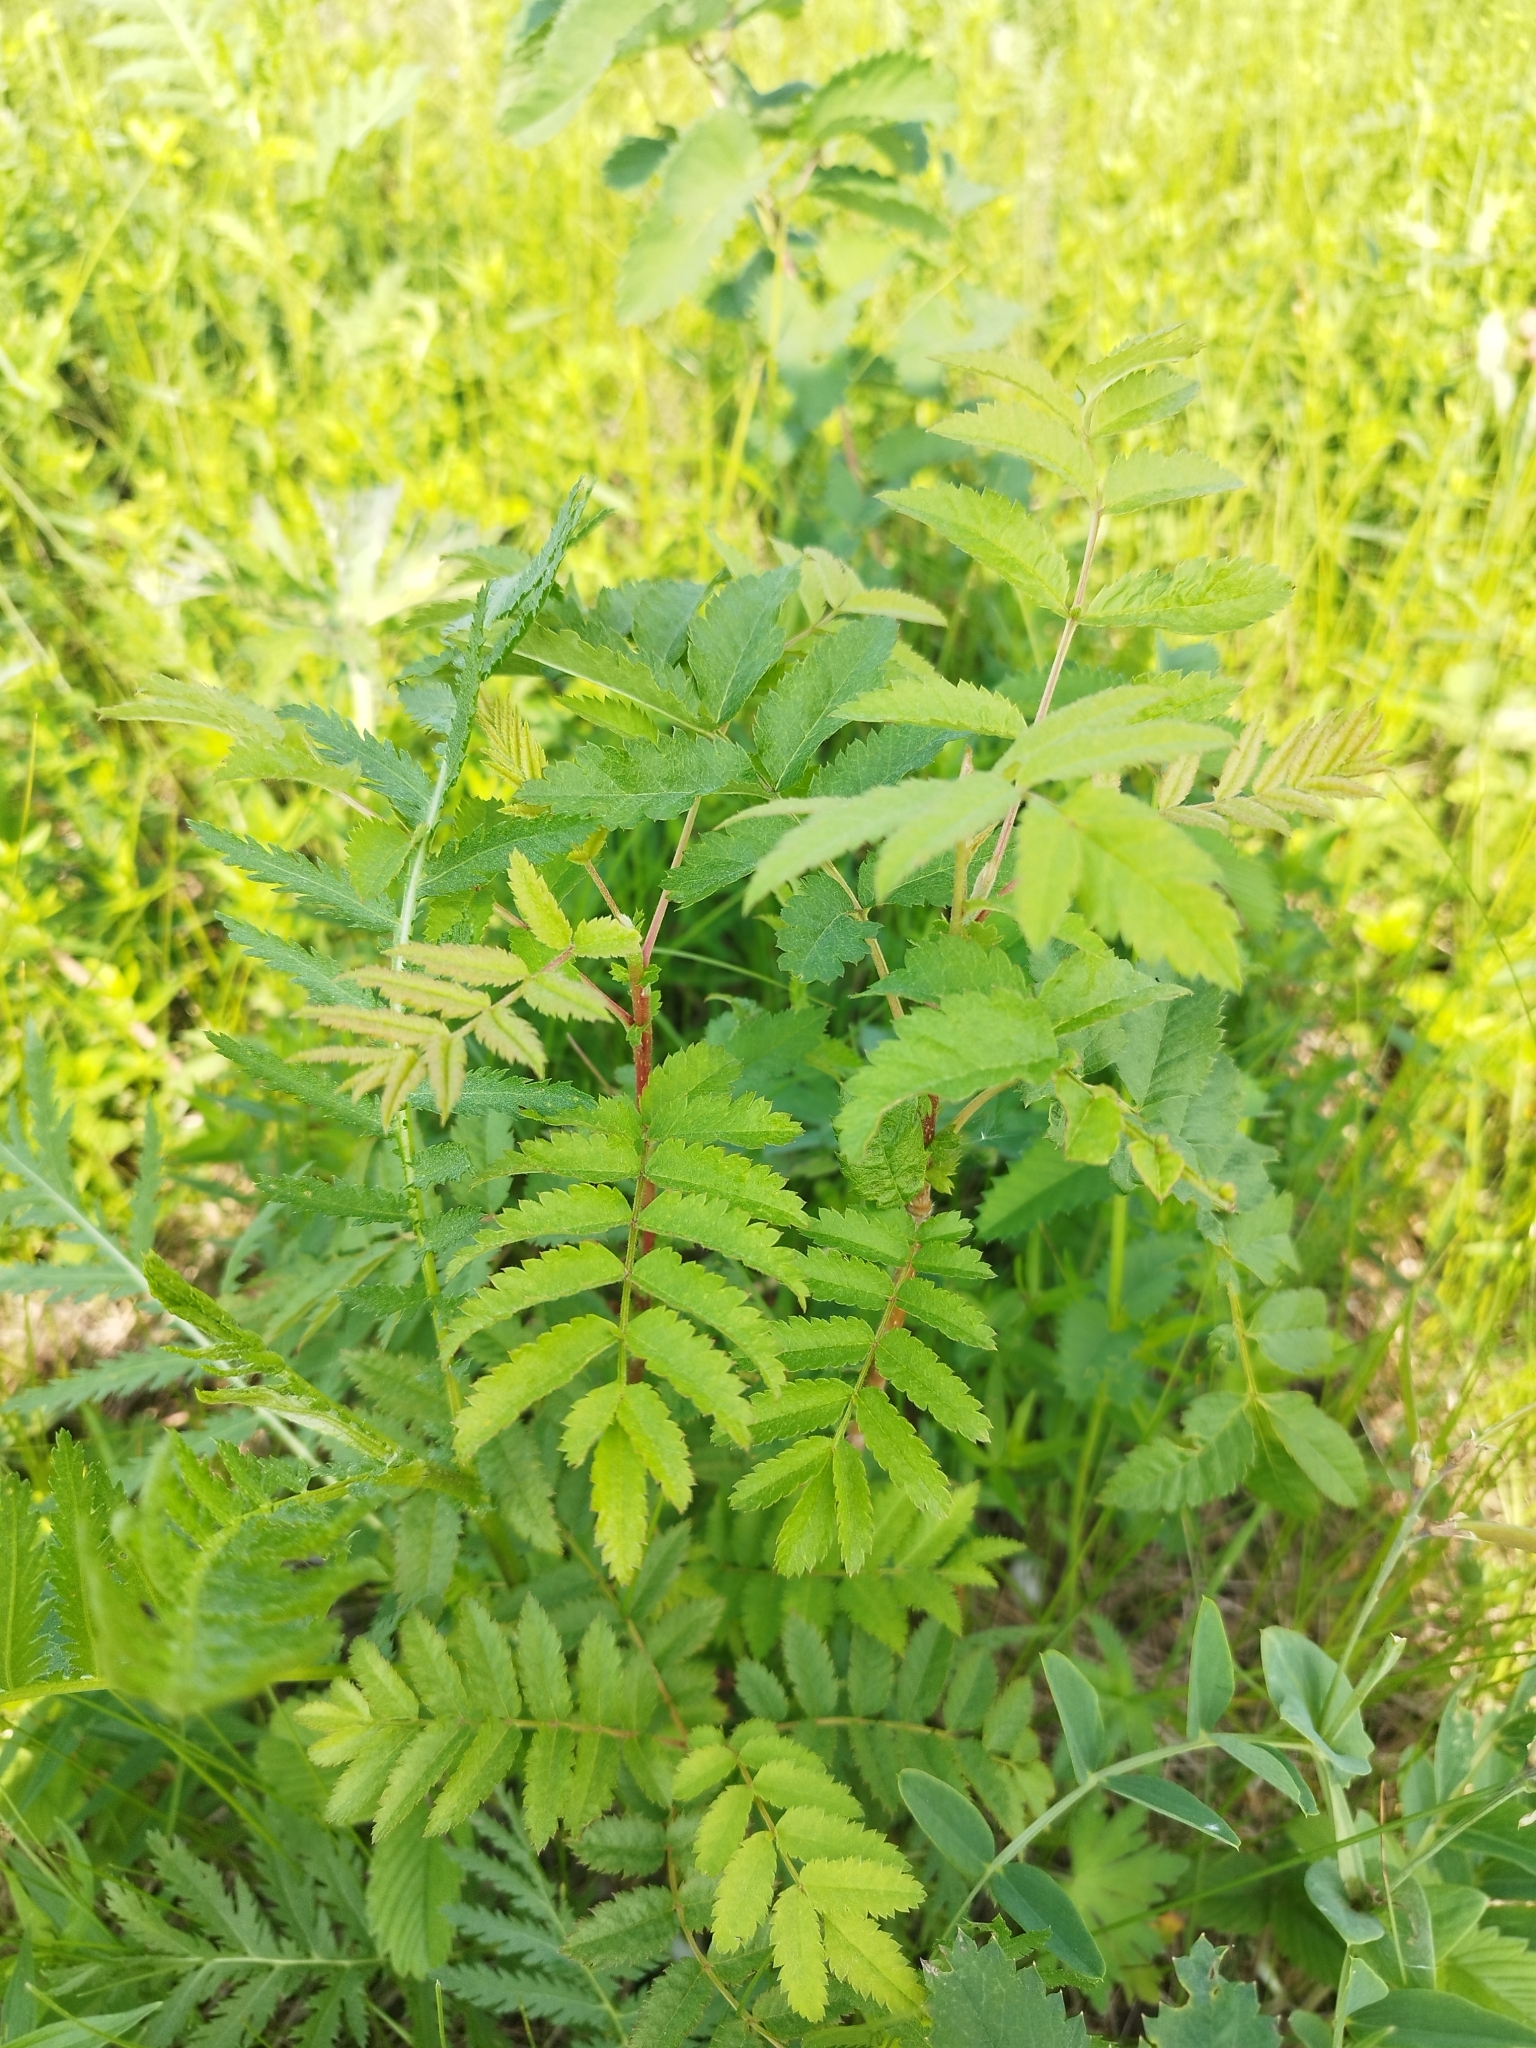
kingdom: Plantae
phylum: Tracheophyta
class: Magnoliopsida
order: Rosales
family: Rosaceae
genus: Sorbus
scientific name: Sorbus aucuparia
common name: Rowan
